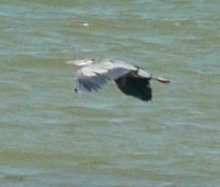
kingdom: Animalia
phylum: Chordata
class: Aves
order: Pelecaniformes
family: Ardeidae
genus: Ardea
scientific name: Ardea herodias
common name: Great blue heron
